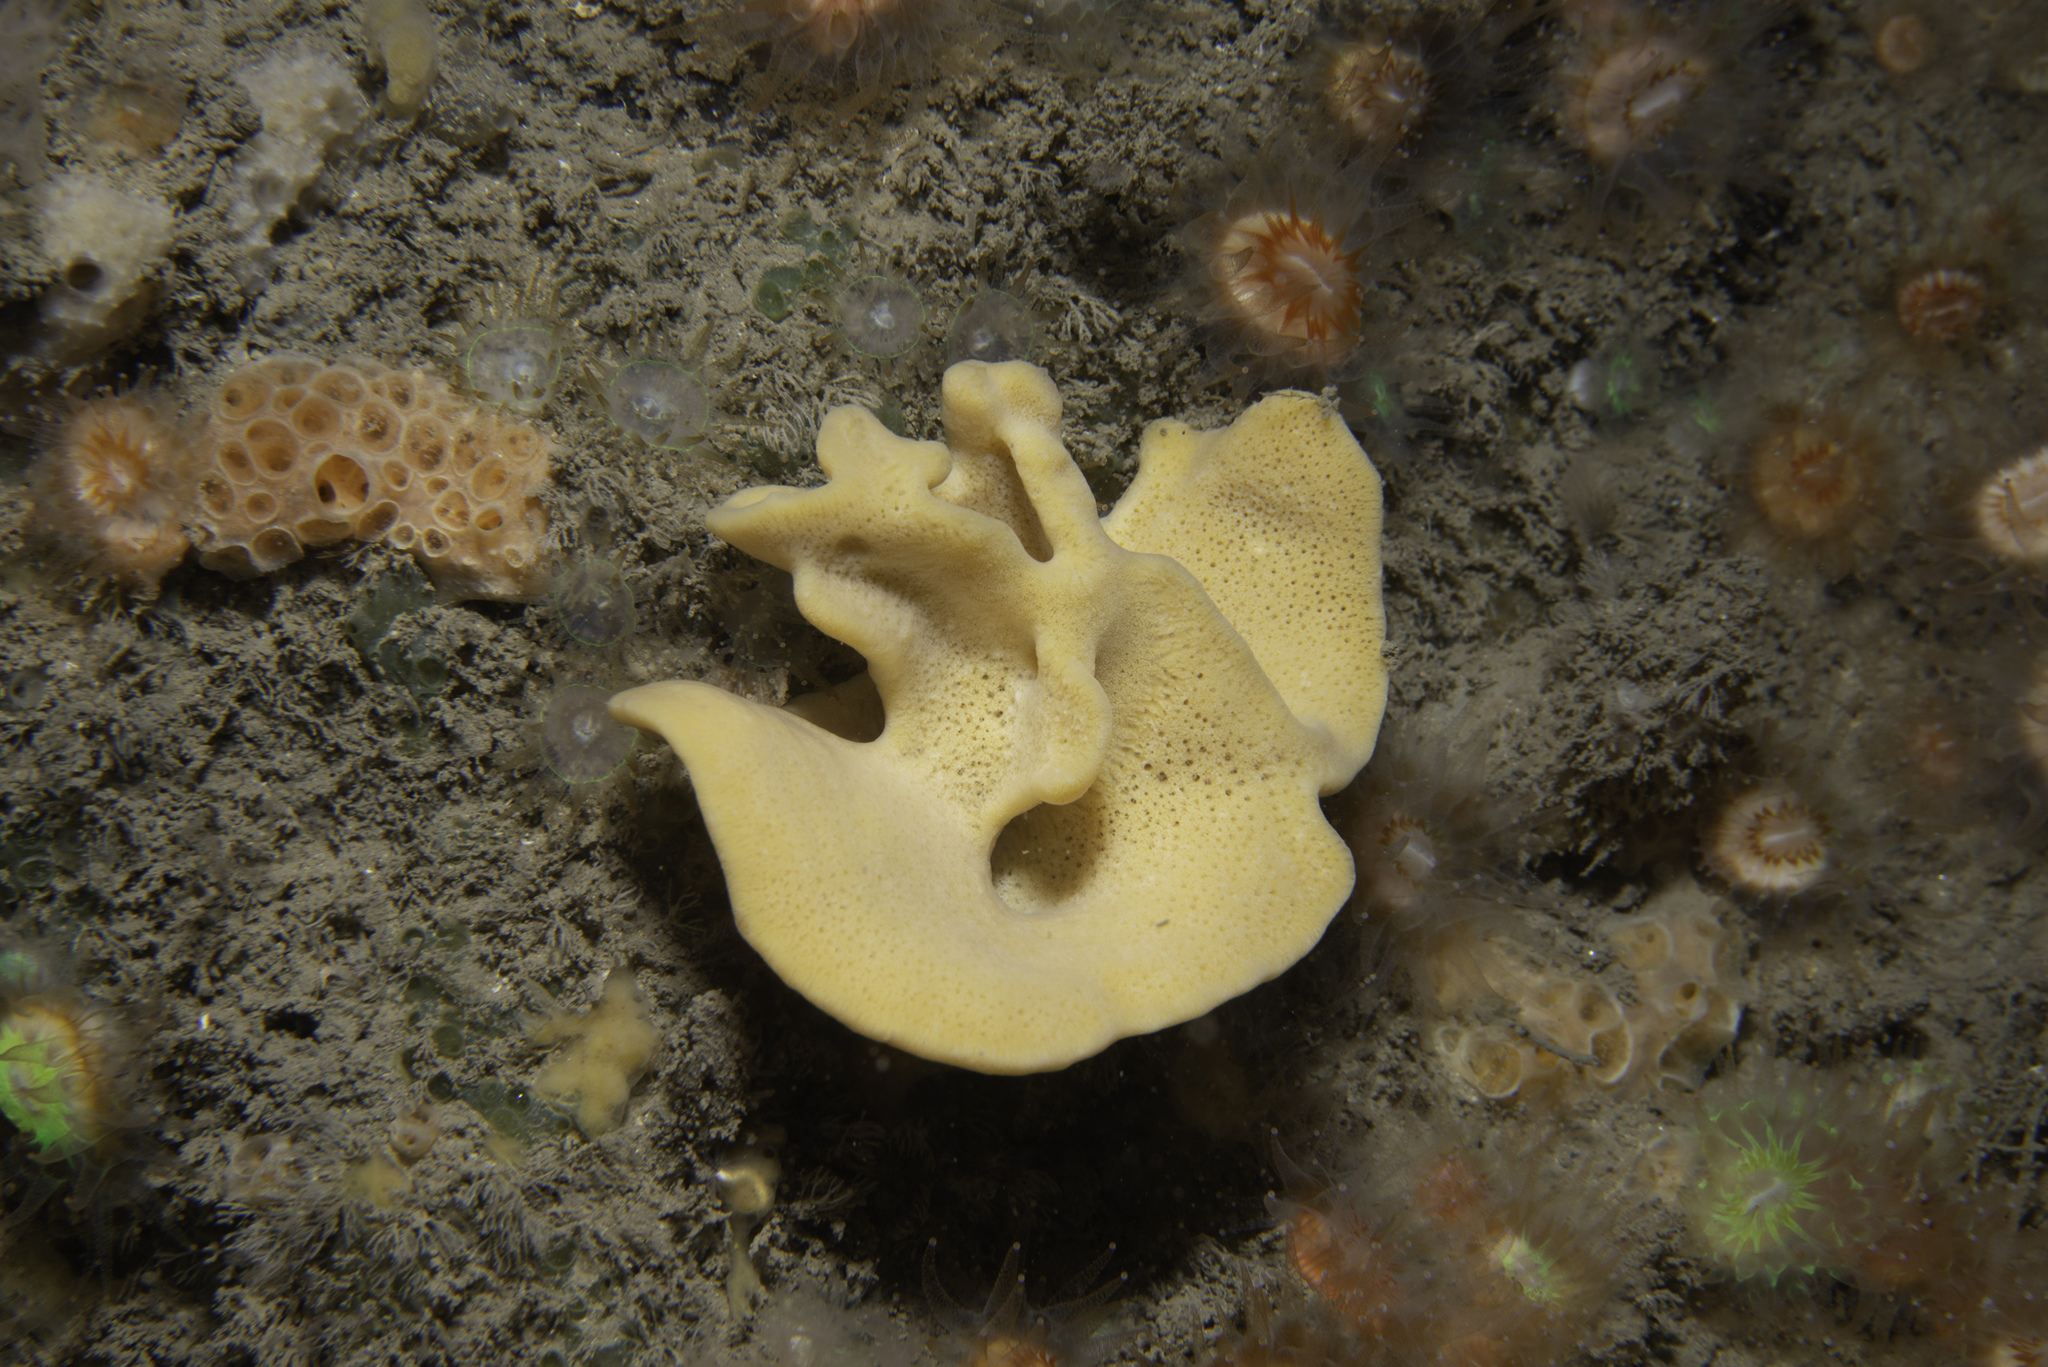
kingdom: Animalia
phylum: Porifera
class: Demospongiae
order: Axinellida
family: Axinellidae
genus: Axinella
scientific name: Axinella infundibuliformis
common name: North atlantic cup sponge
